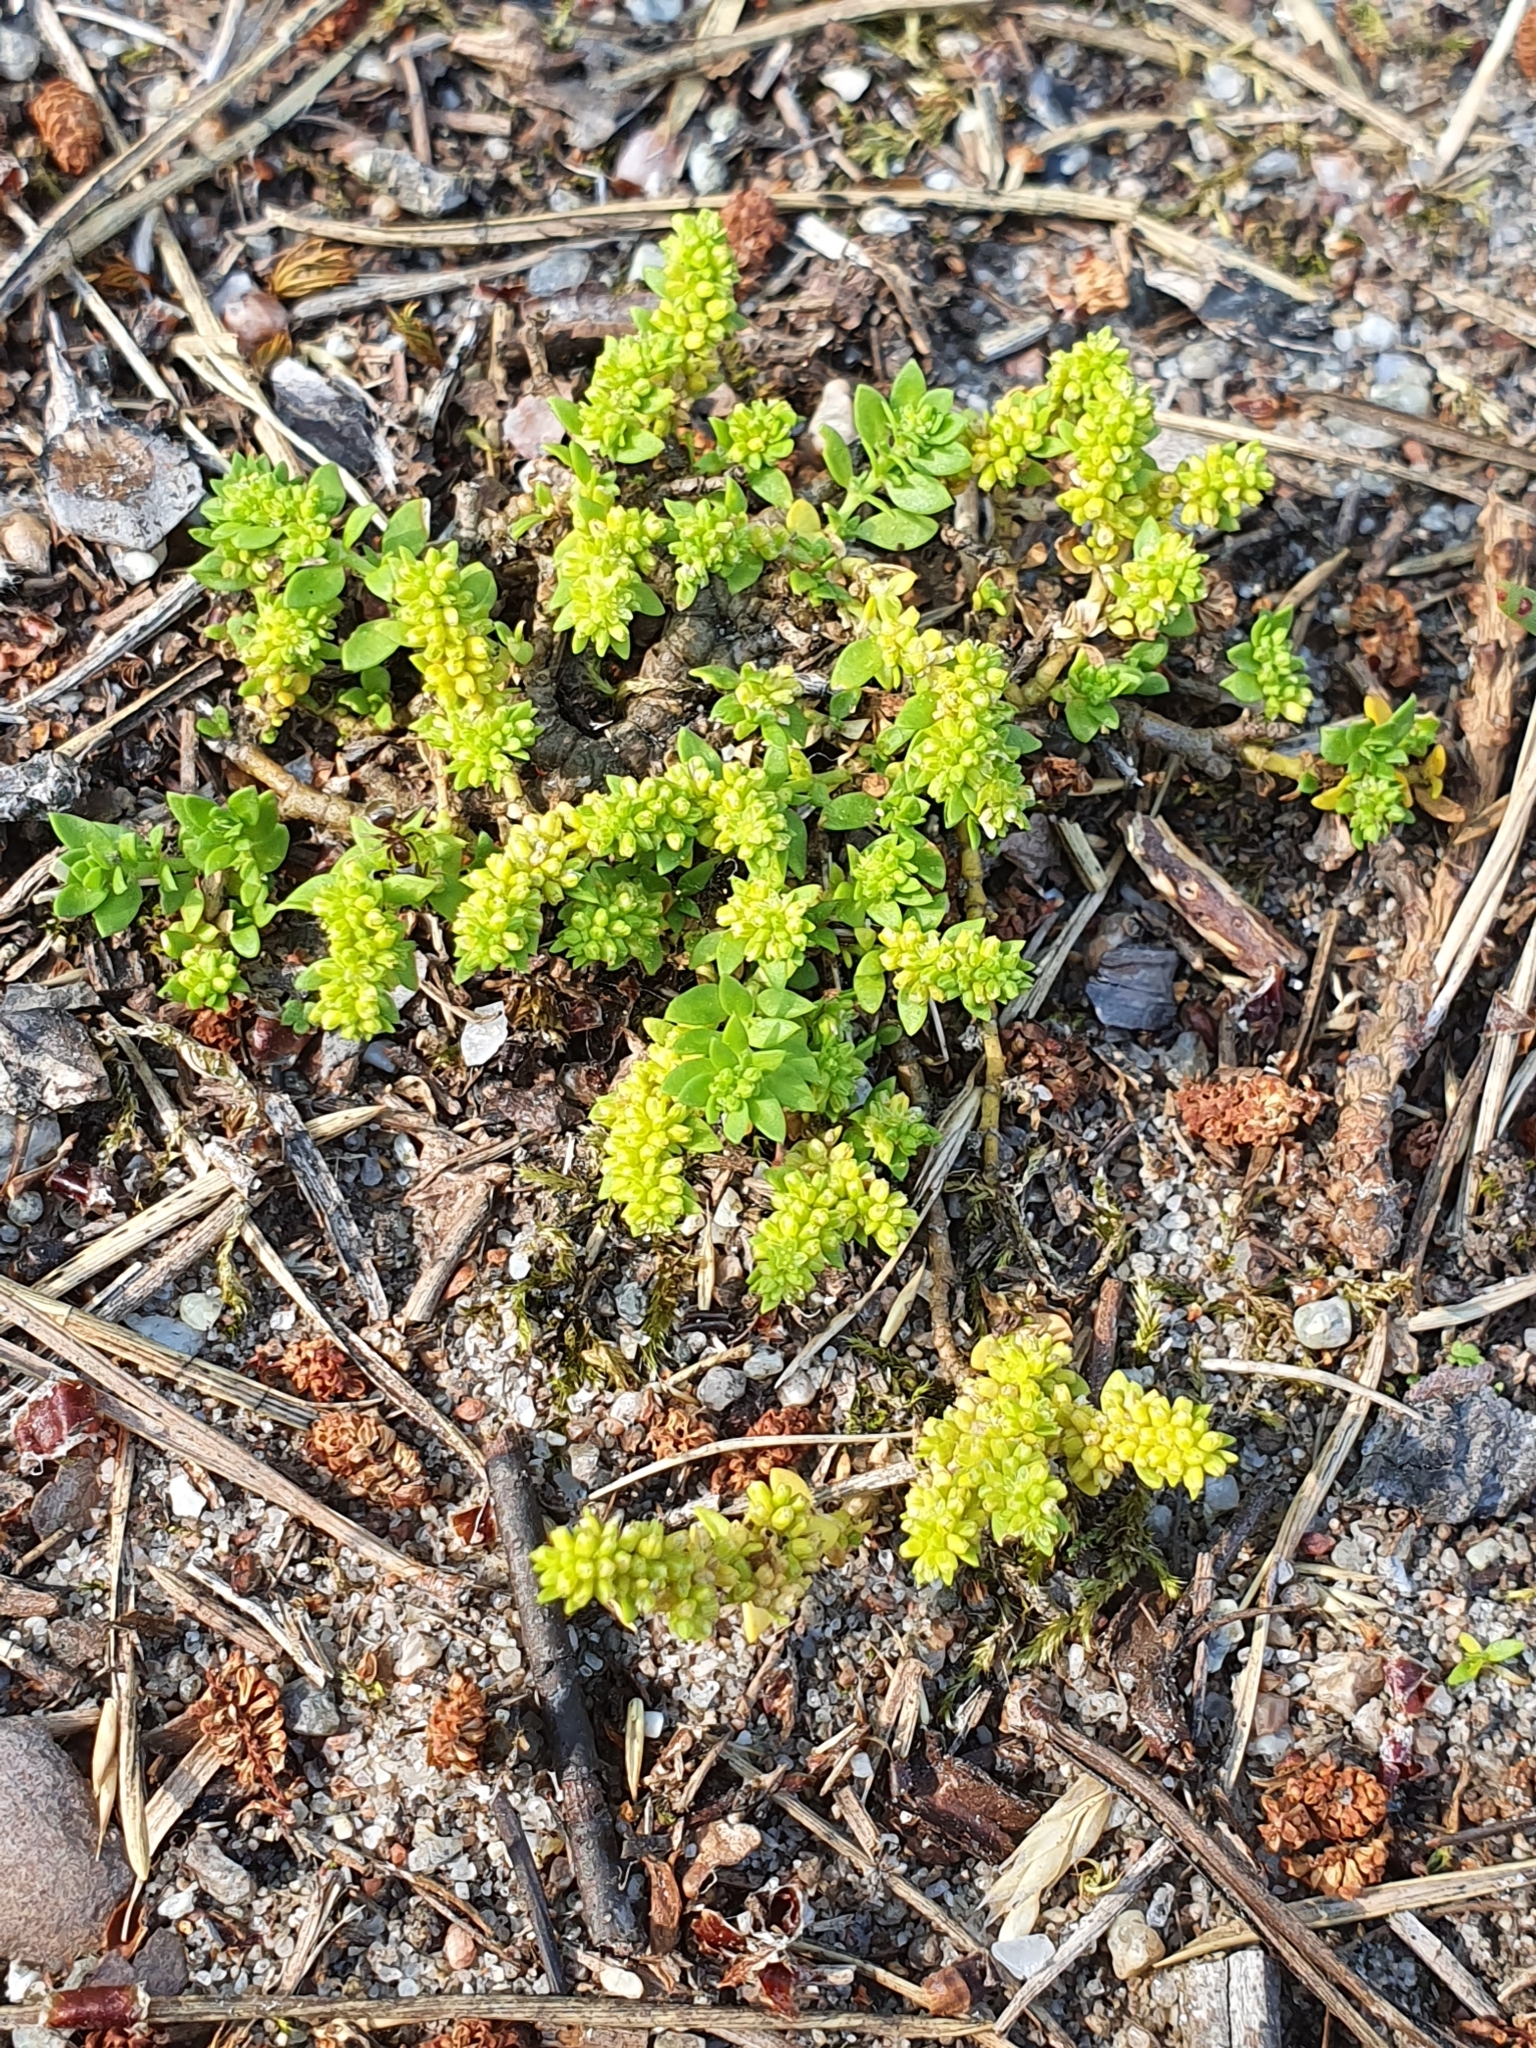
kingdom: Plantae
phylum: Tracheophyta
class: Magnoliopsida
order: Caryophyllales
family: Caryophyllaceae
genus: Herniaria
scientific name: Herniaria glabra
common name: Smooth rupturewort
